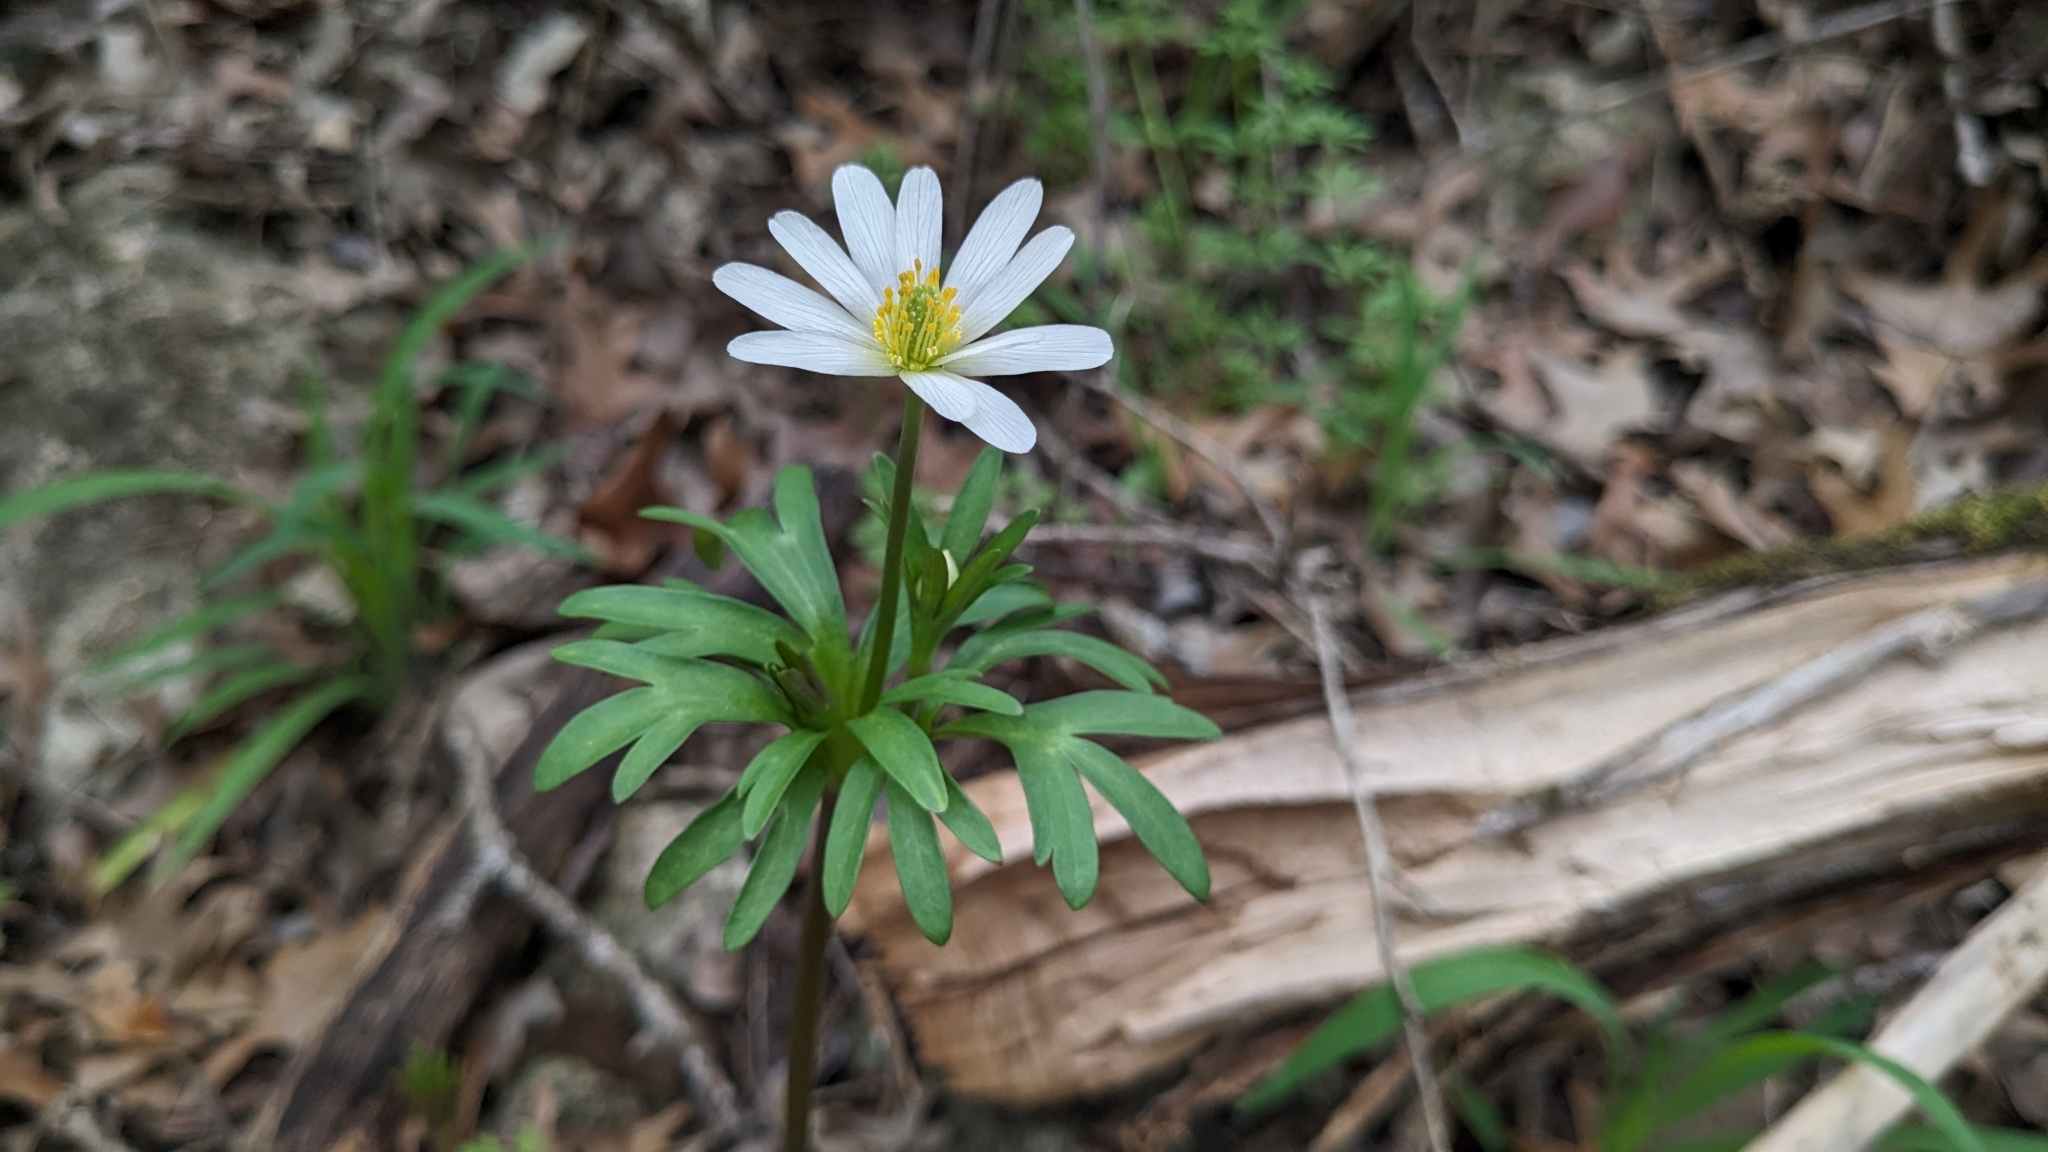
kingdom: Plantae
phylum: Tracheophyta
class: Magnoliopsida
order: Ranunculales
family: Ranunculaceae
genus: Anemone
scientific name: Anemone edwardsiana
